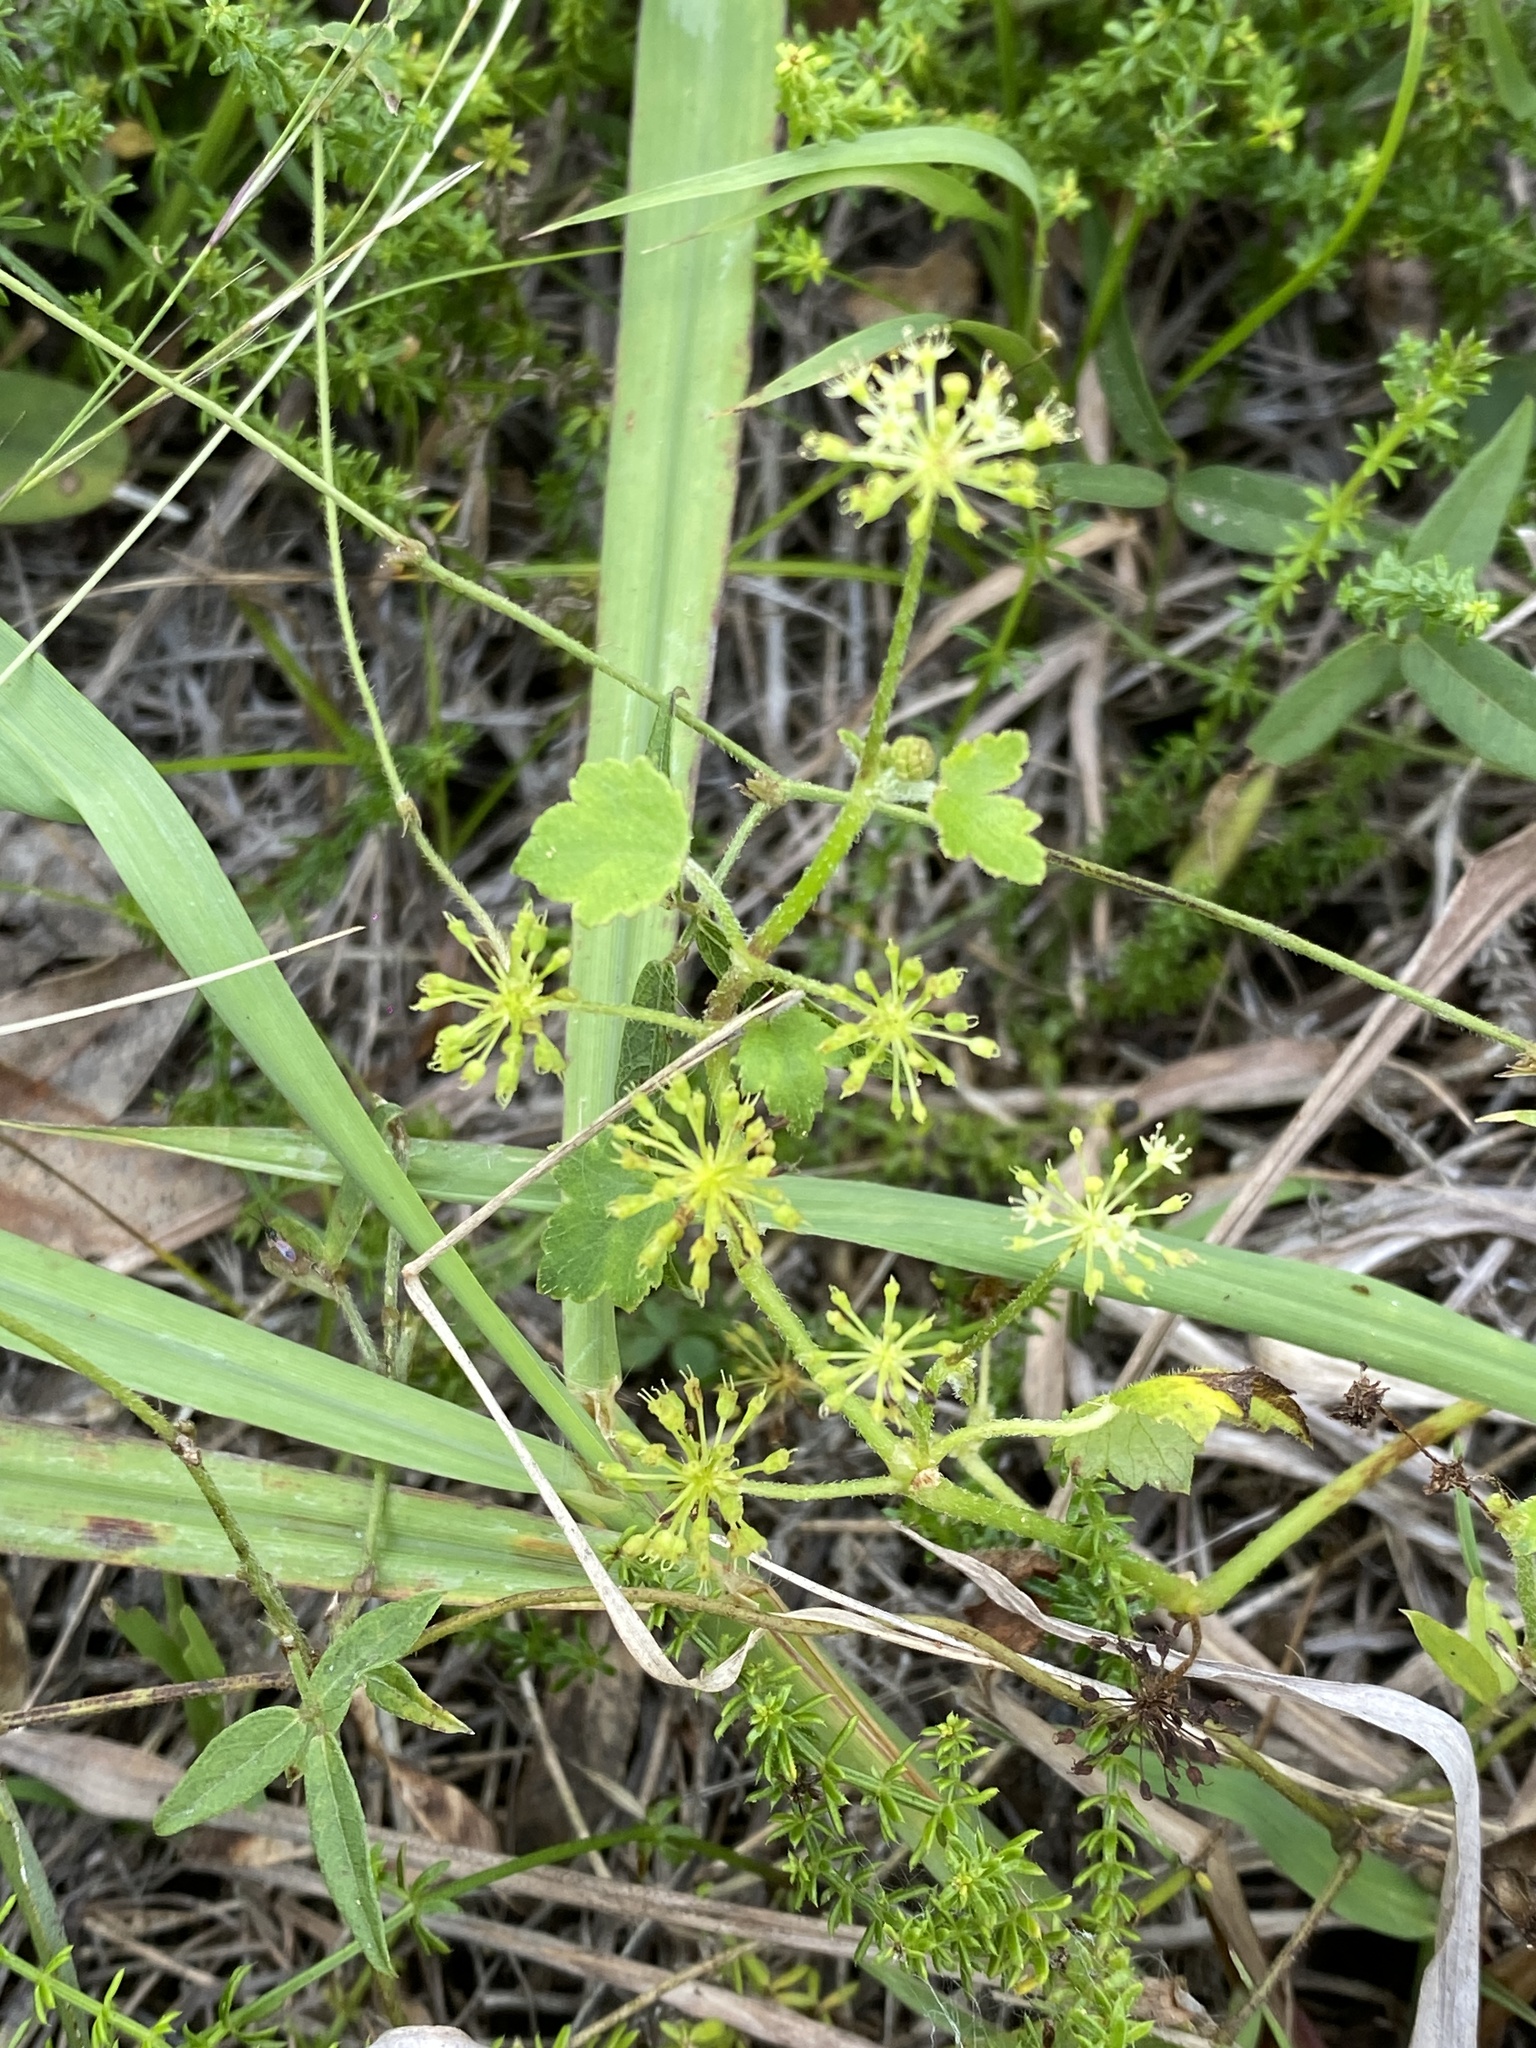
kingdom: Plantae
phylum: Tracheophyta
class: Magnoliopsida
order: Apiales
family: Araliaceae
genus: Hydrocotyle
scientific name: Hydrocotyle laxiflora
